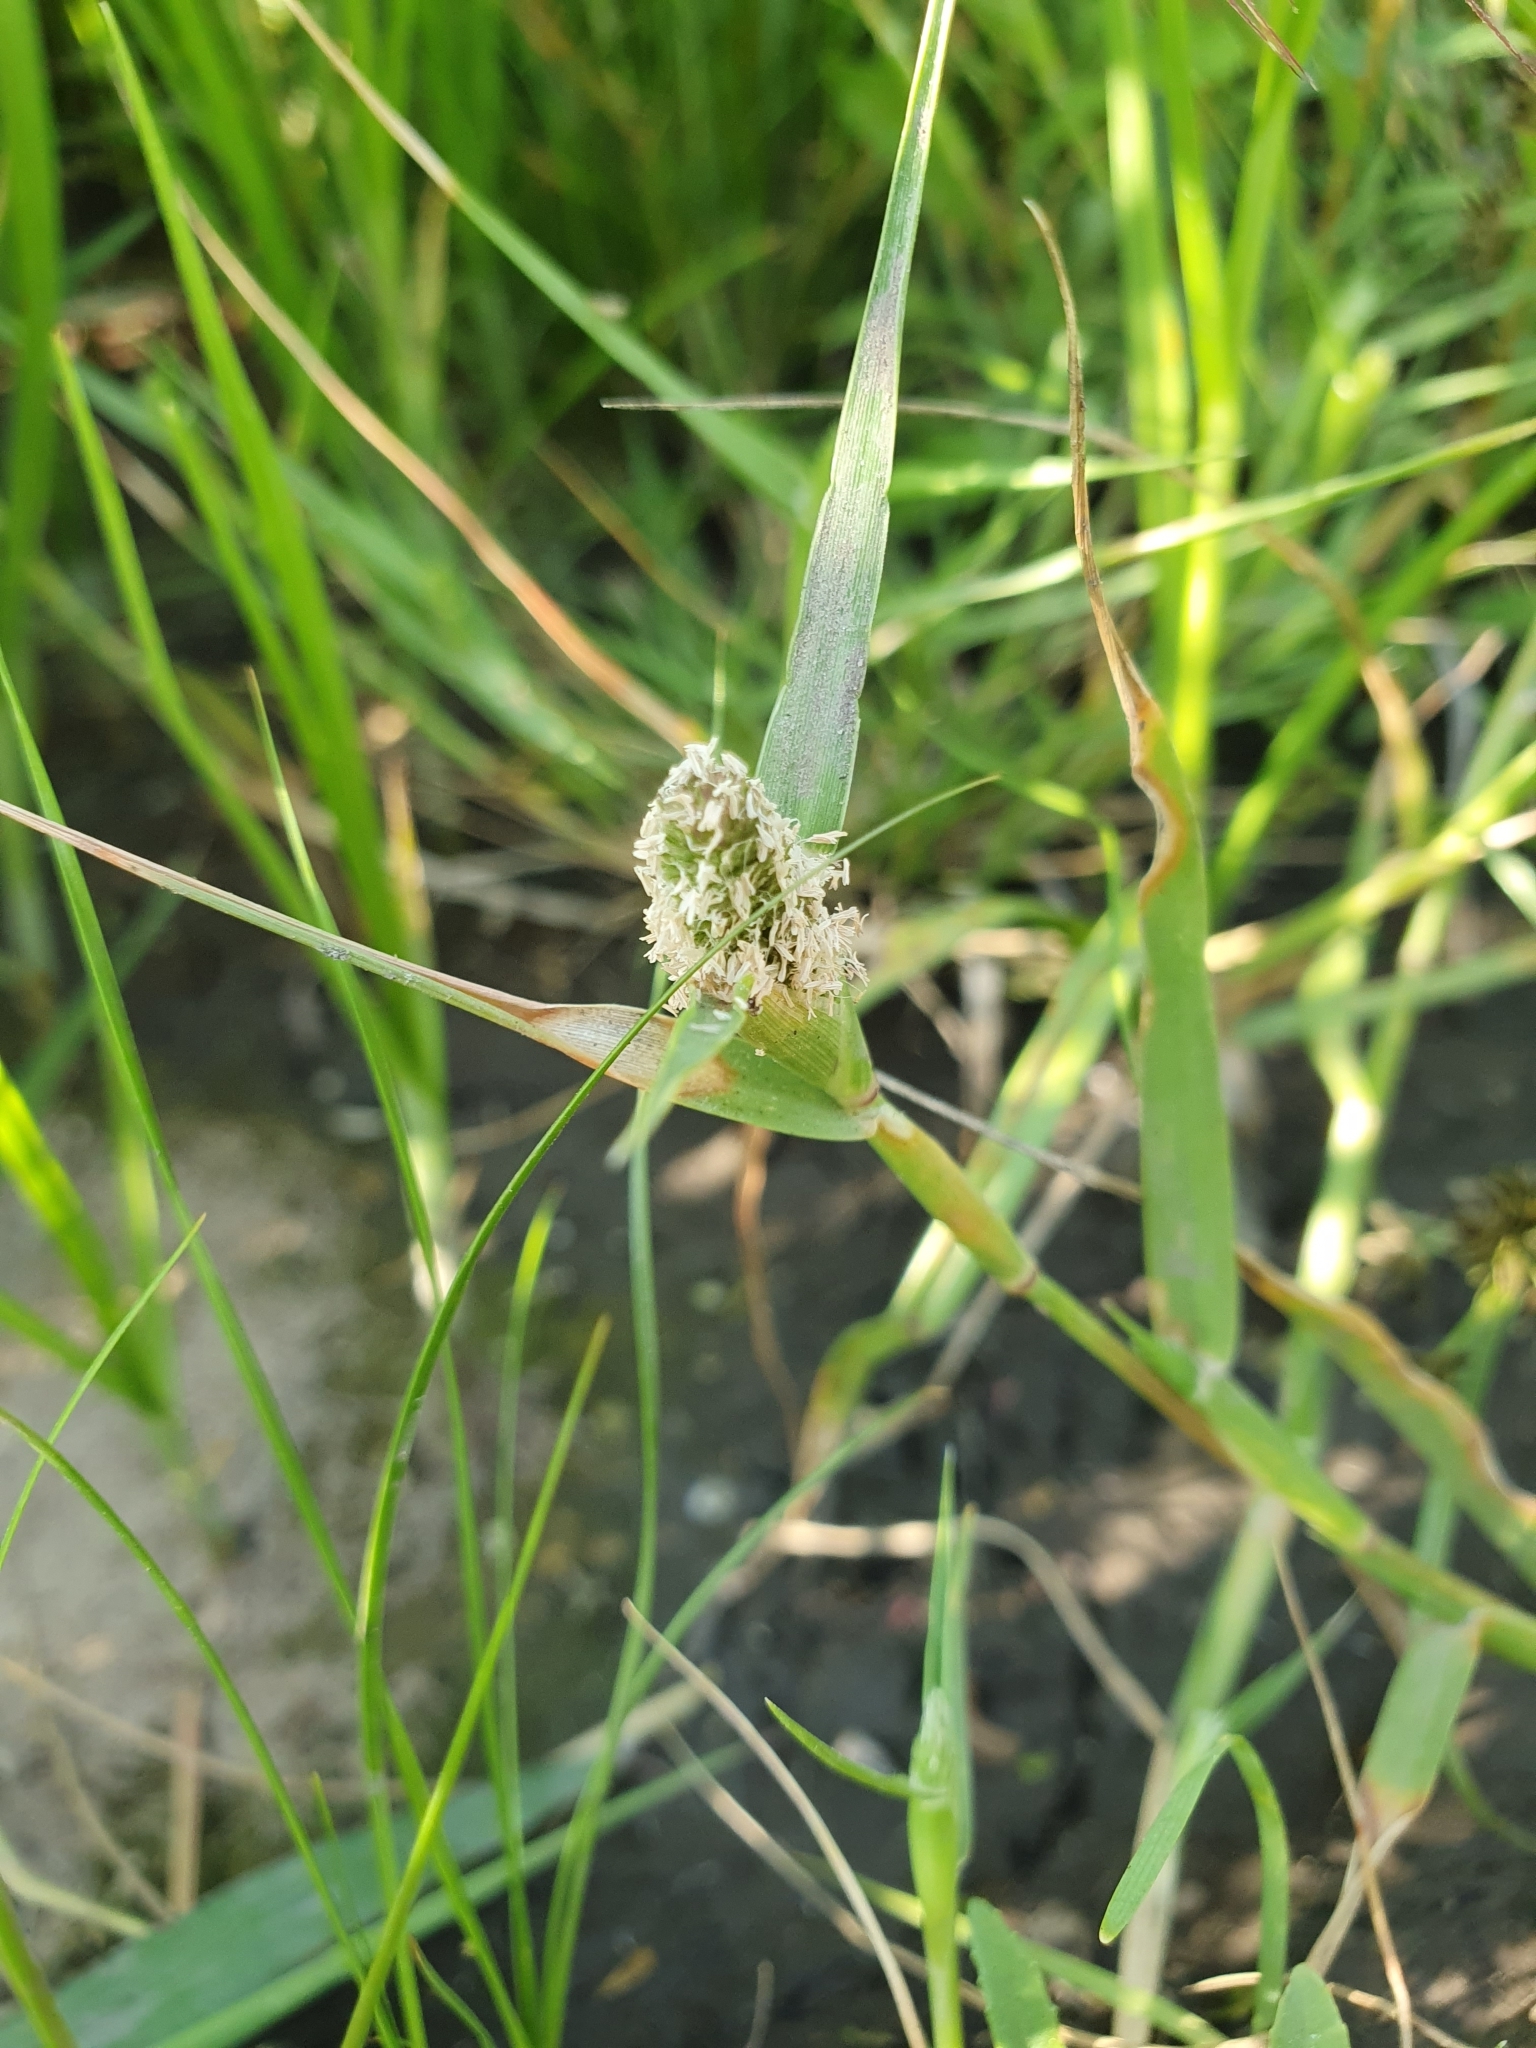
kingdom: Plantae
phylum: Tracheophyta
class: Liliopsida
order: Poales
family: Poaceae
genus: Sporobolus
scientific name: Sporobolus schoenoides
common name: Rush-like timothy
